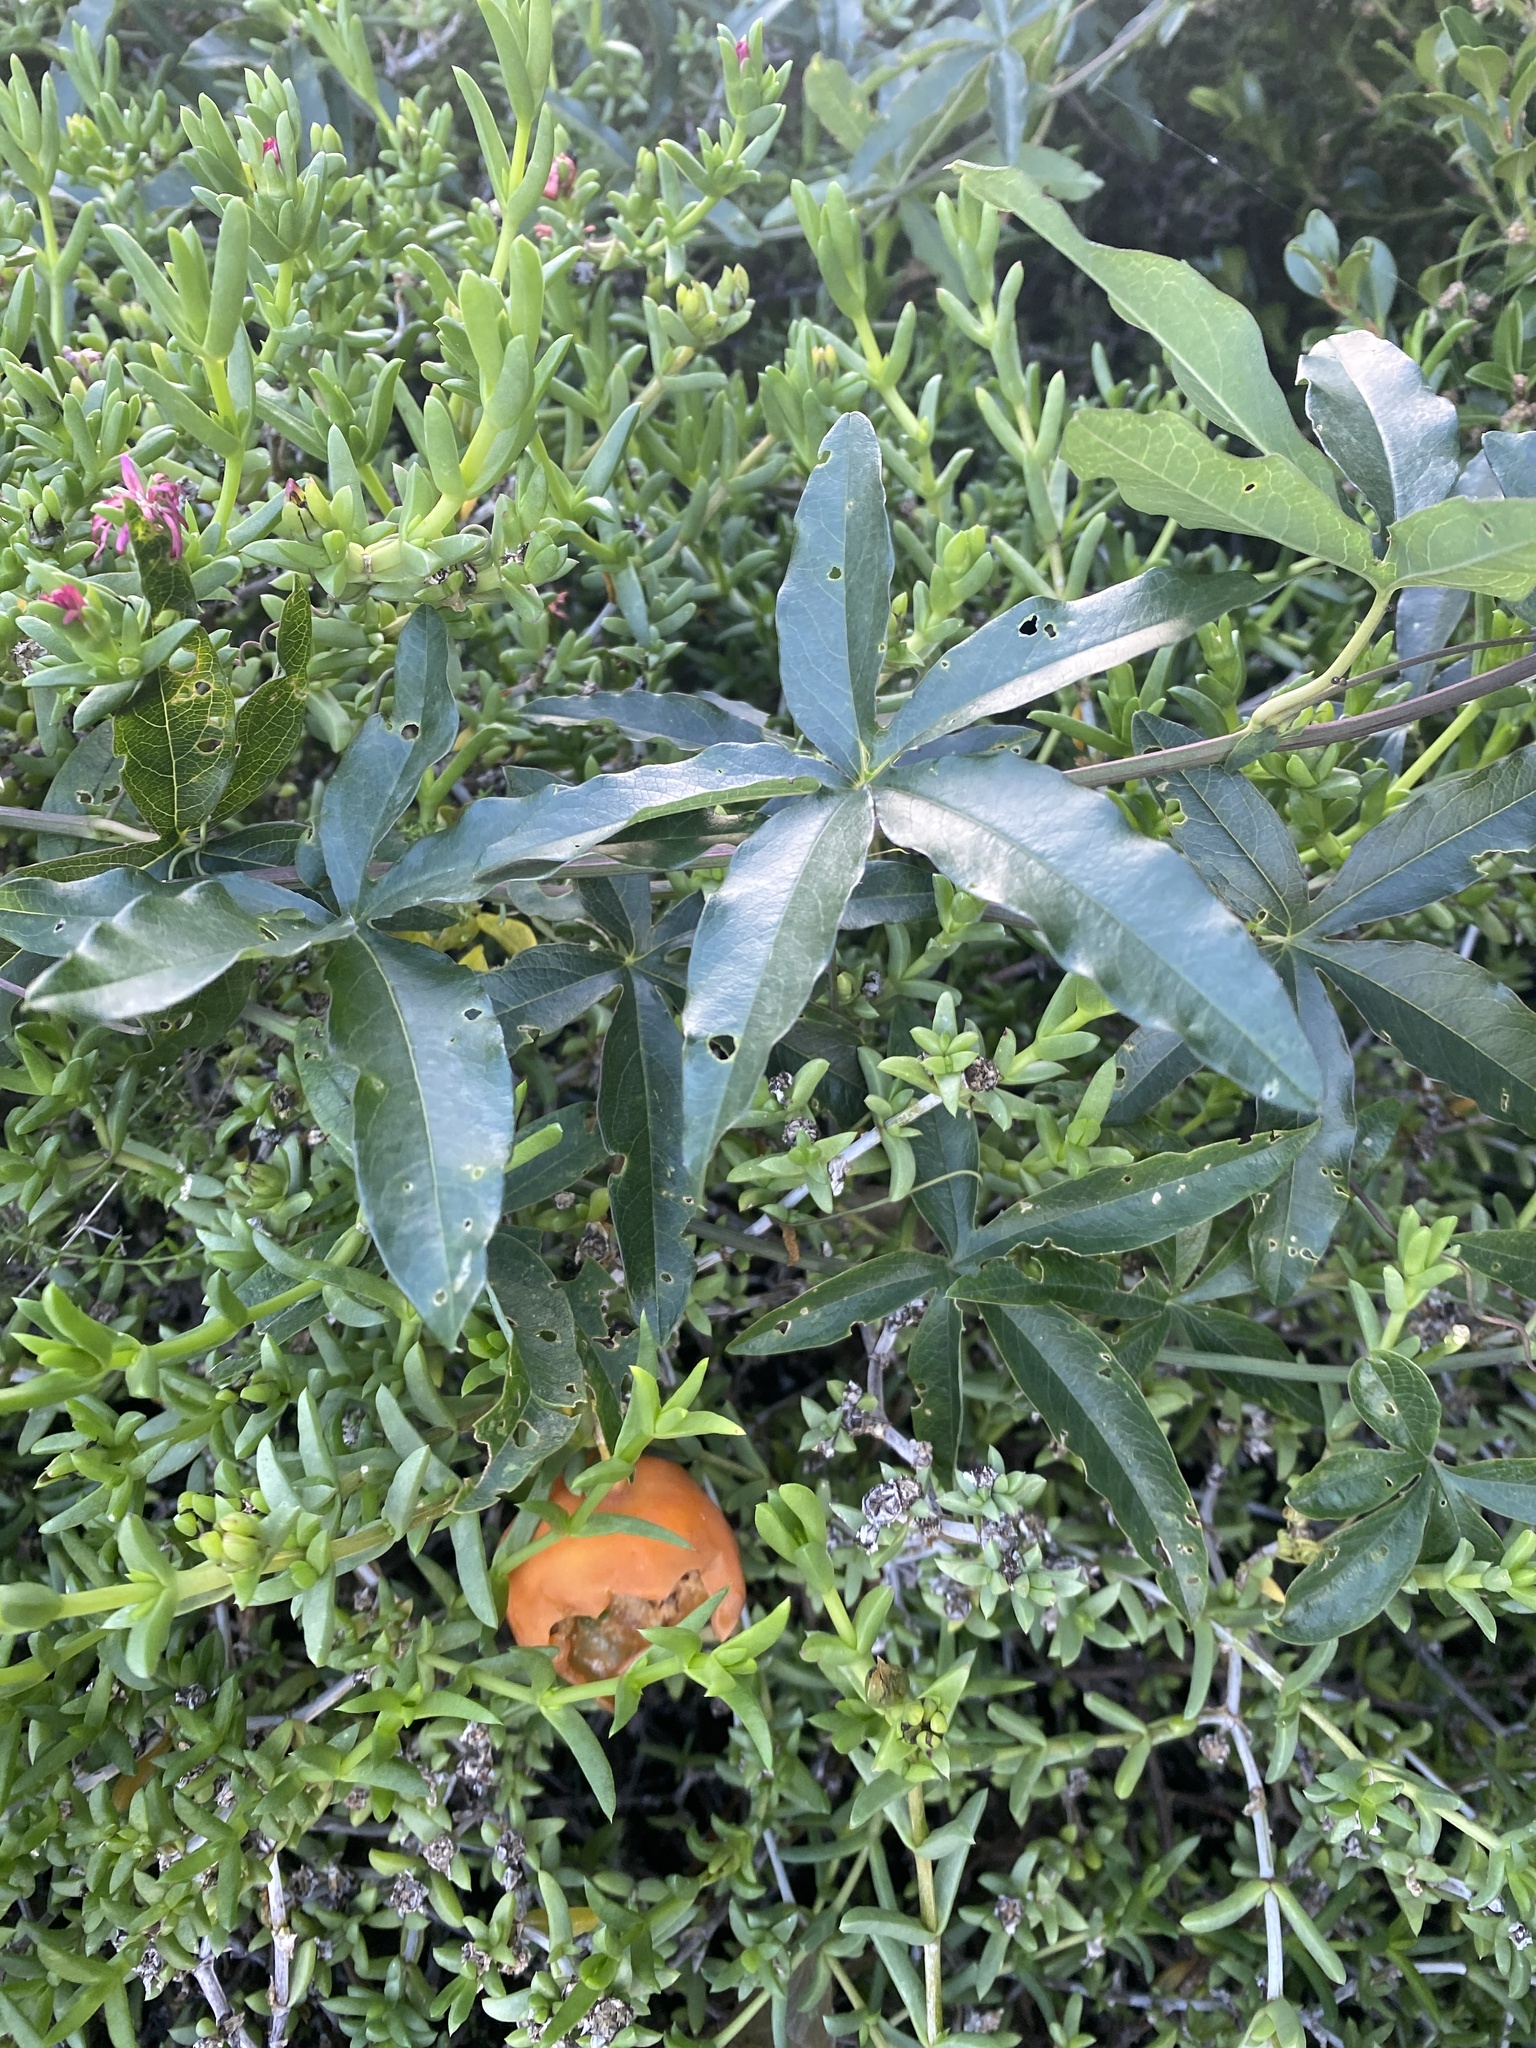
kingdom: Plantae
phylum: Tracheophyta
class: Magnoliopsida
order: Malpighiales
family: Passifloraceae
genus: Passiflora
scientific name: Passiflora caerulea
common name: Blue passionflower
